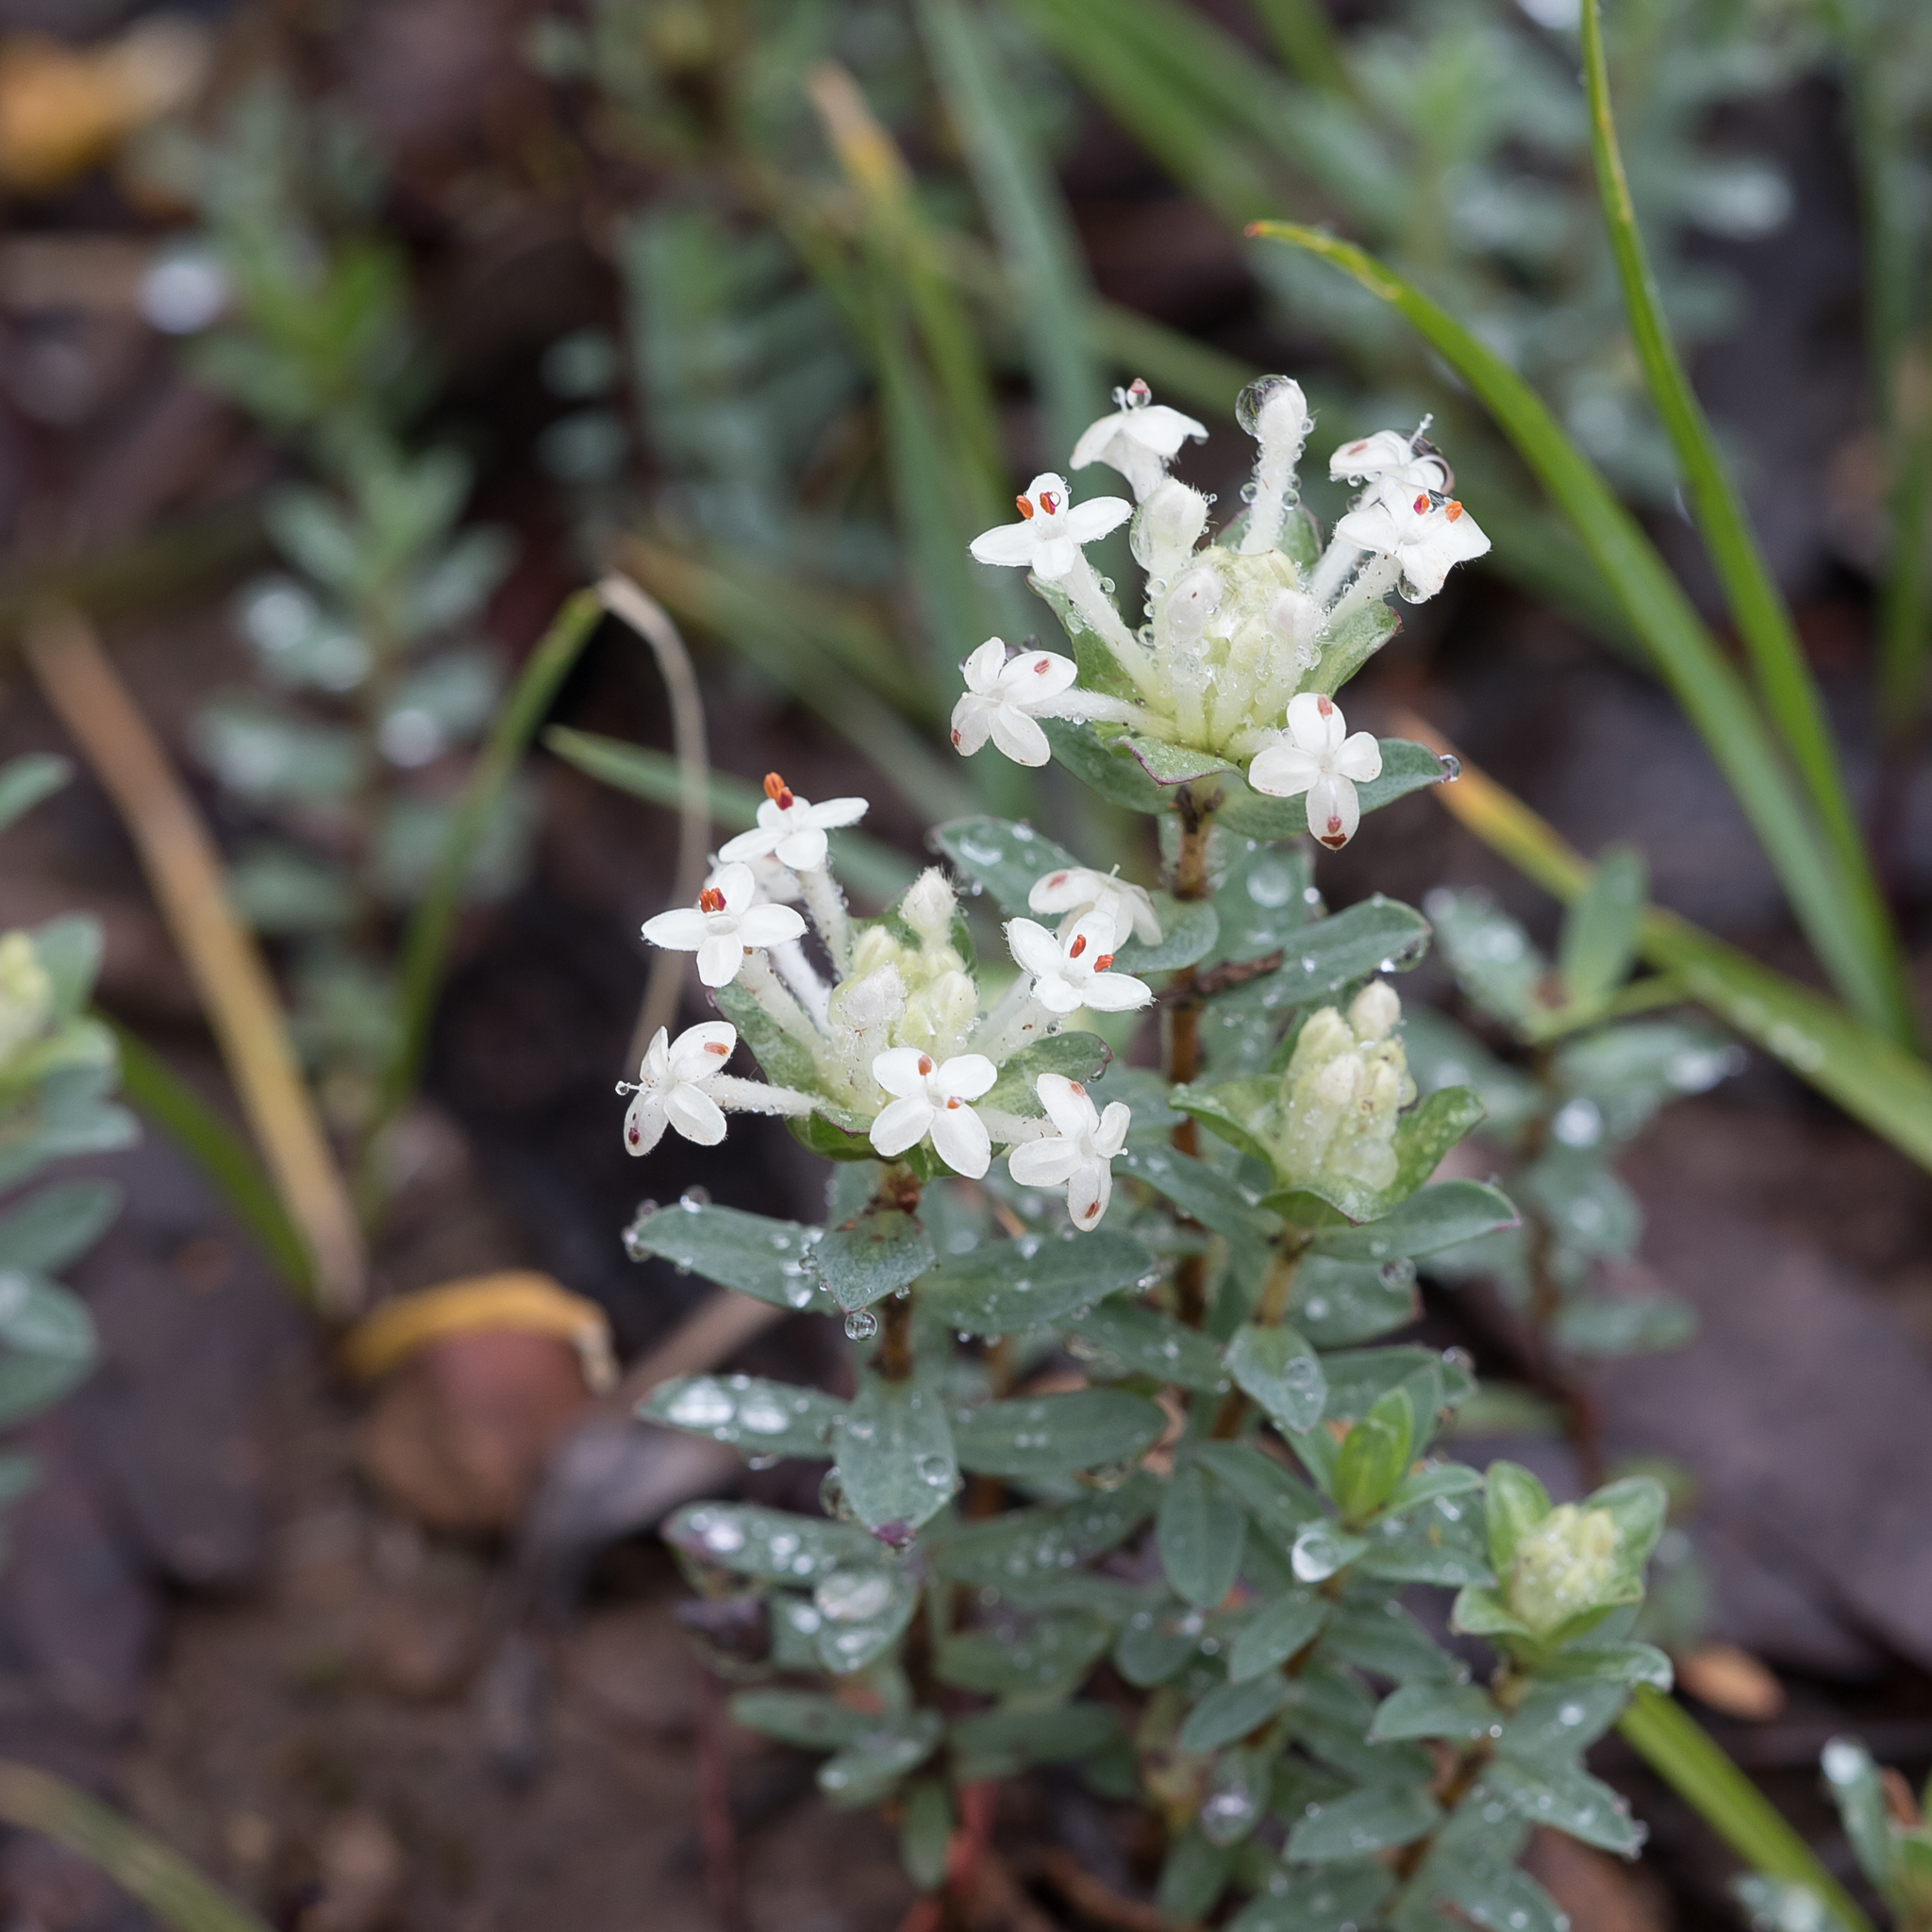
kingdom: Plantae
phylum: Tracheophyta
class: Magnoliopsida
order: Malvales
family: Thymelaeaceae
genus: Pimelea
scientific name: Pimelea humilis
